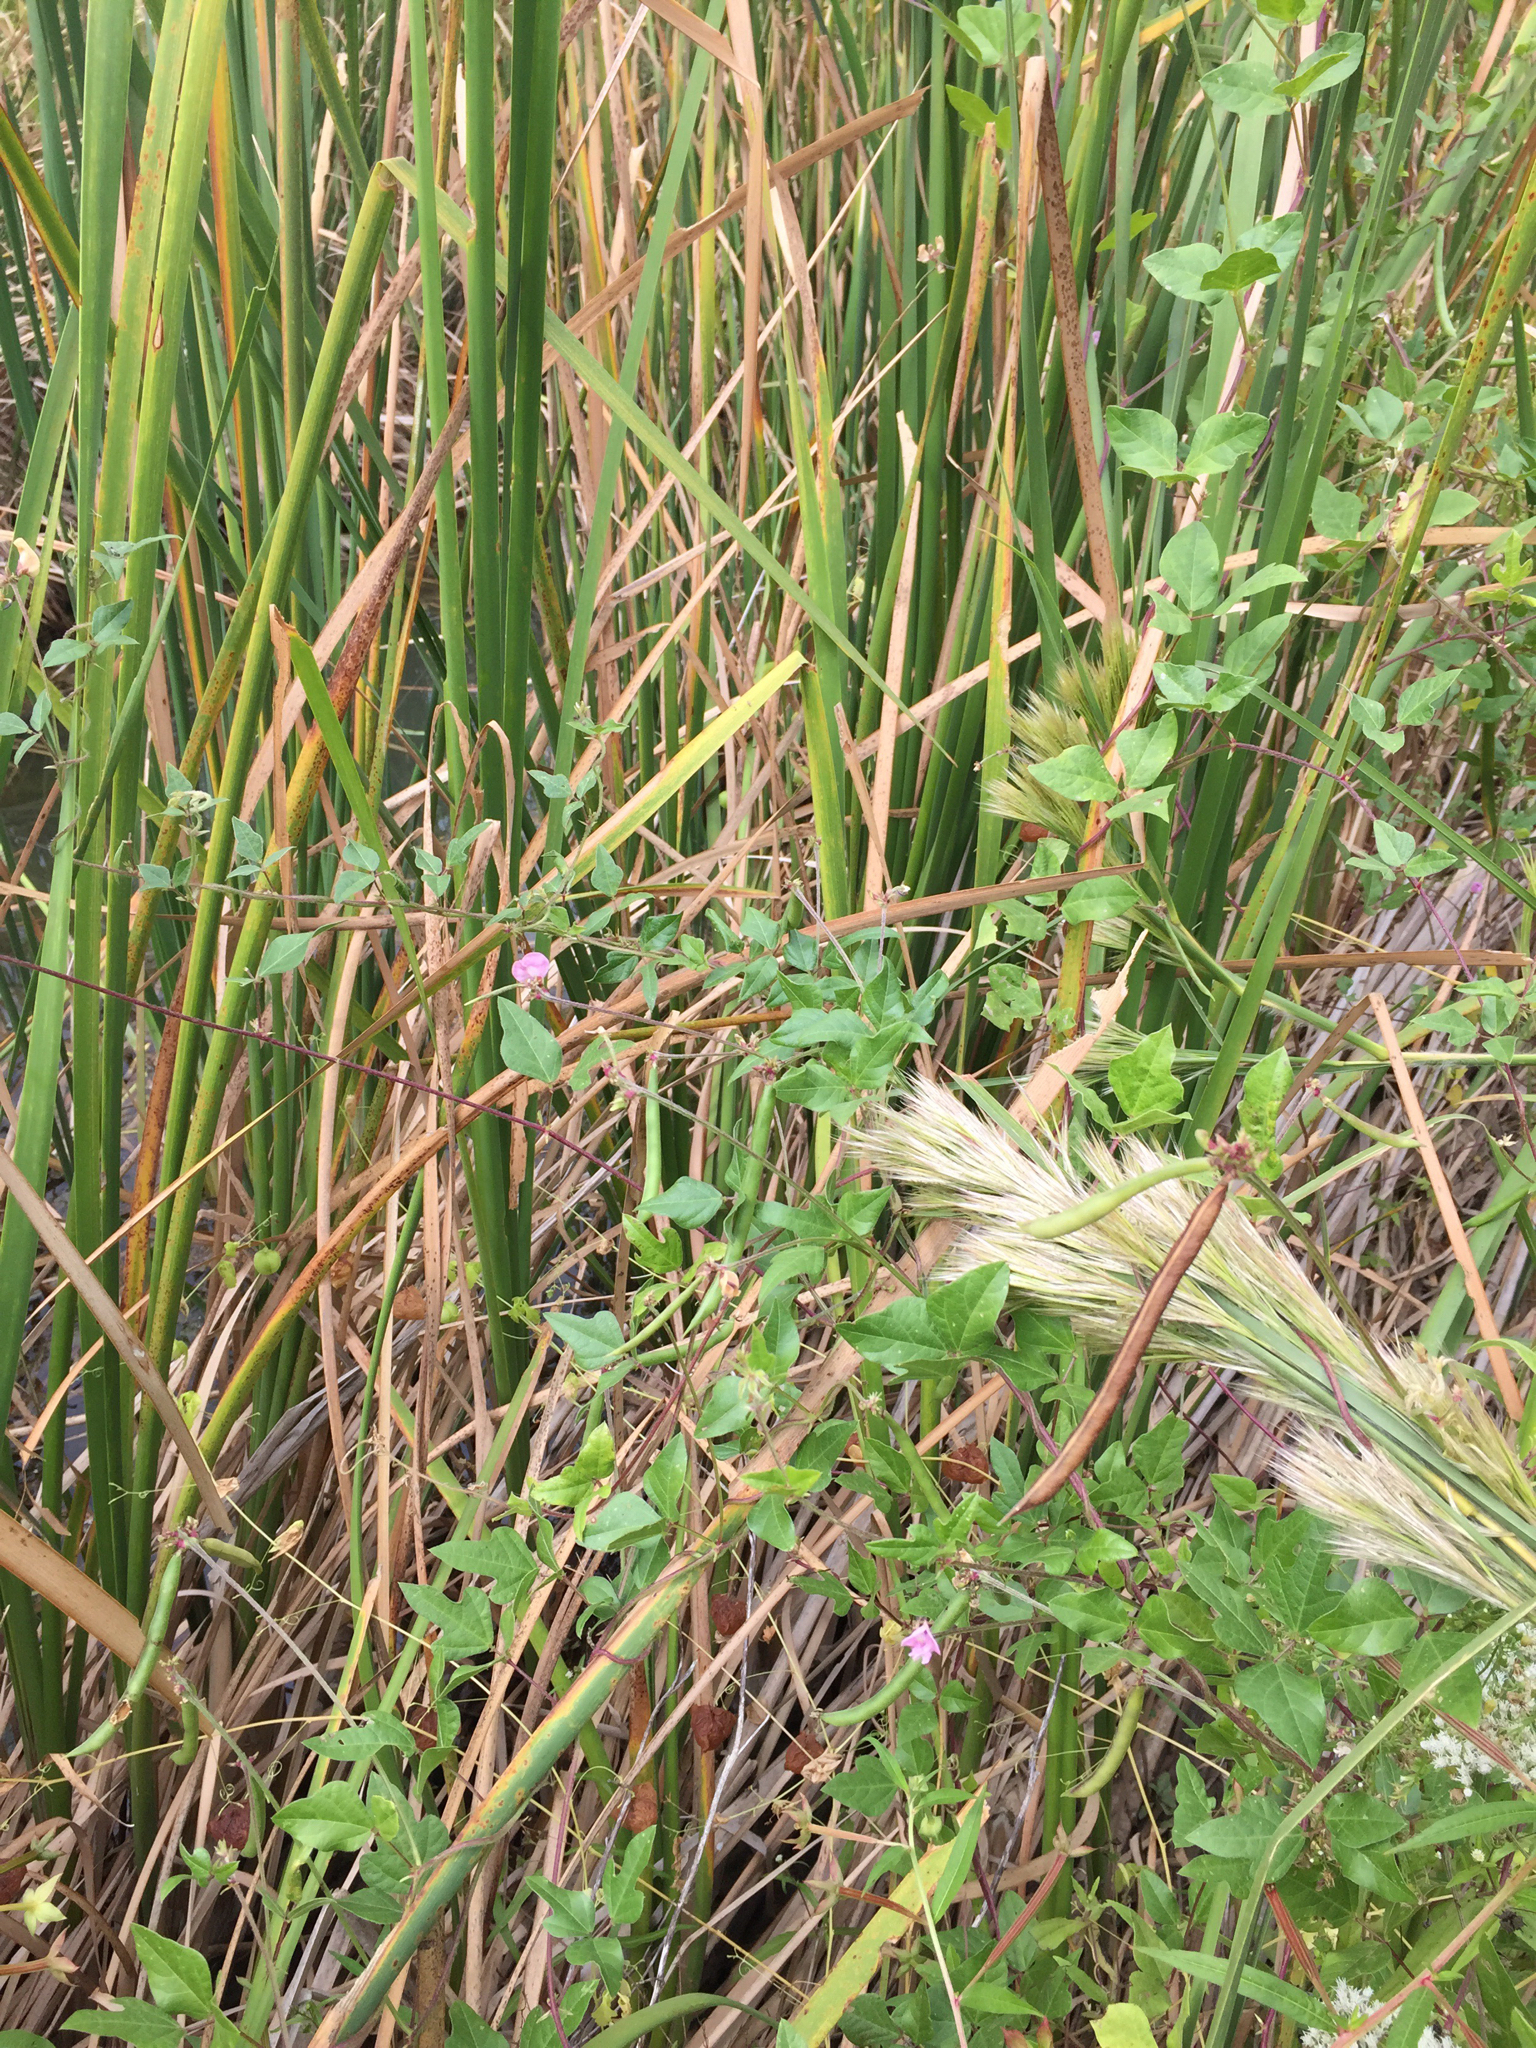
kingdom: Plantae
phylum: Tracheophyta
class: Magnoliopsida
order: Fabales
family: Fabaceae
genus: Strophostyles
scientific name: Strophostyles helvola
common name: Trailing wild bean
